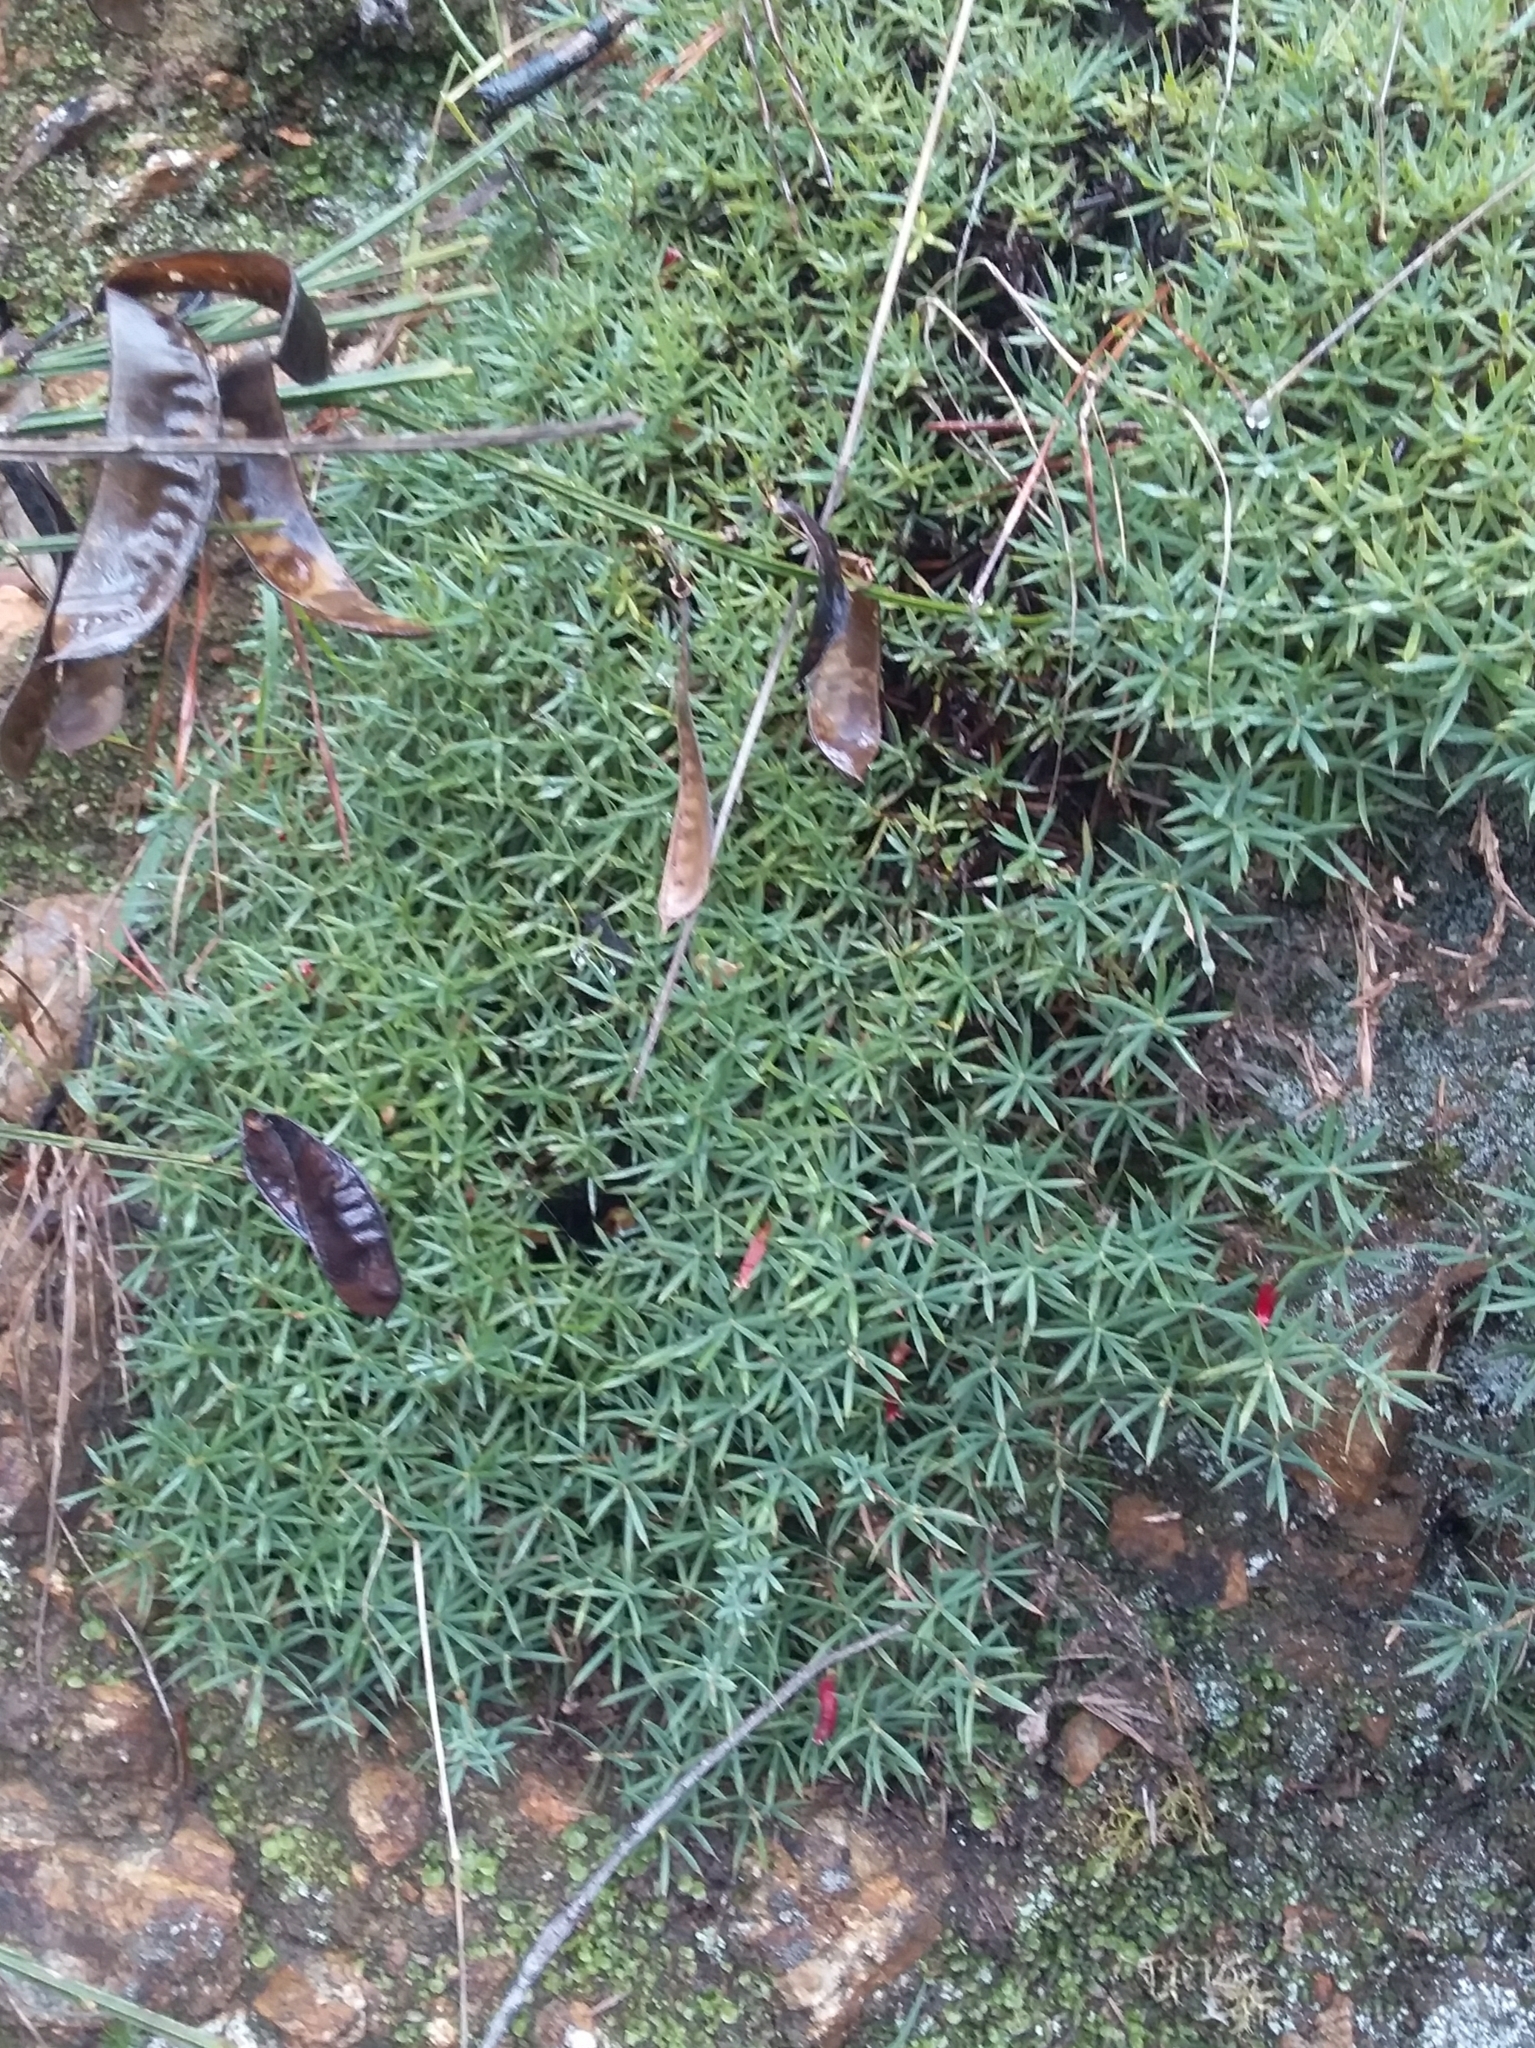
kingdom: Plantae
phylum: Tracheophyta
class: Magnoliopsida
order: Ericales
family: Ericaceae
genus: Styphelia
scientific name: Styphelia humifusa
